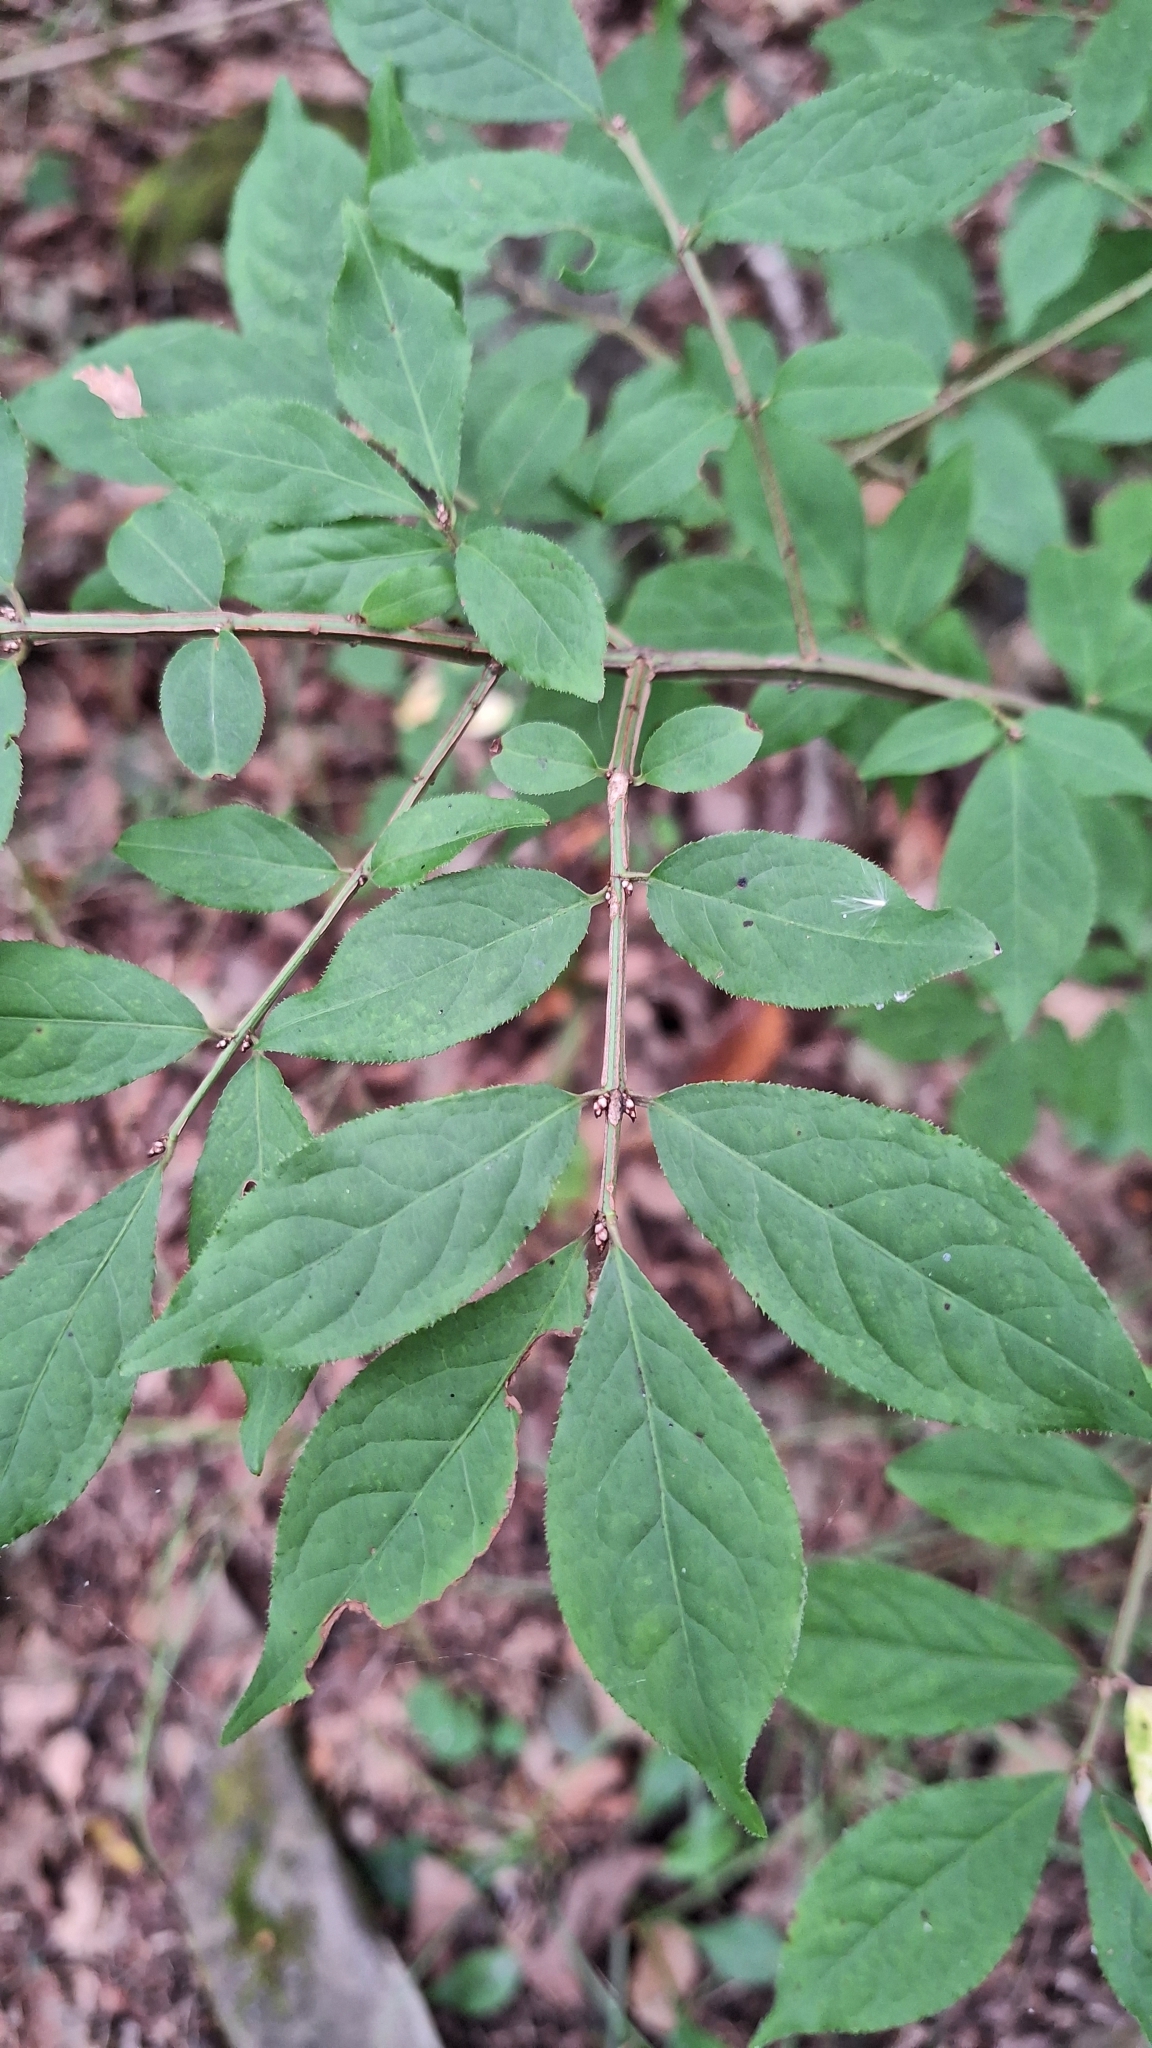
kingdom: Plantae
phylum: Tracheophyta
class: Magnoliopsida
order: Celastrales
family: Celastraceae
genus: Euonymus
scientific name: Euonymus alatus
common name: Winged euonymus
